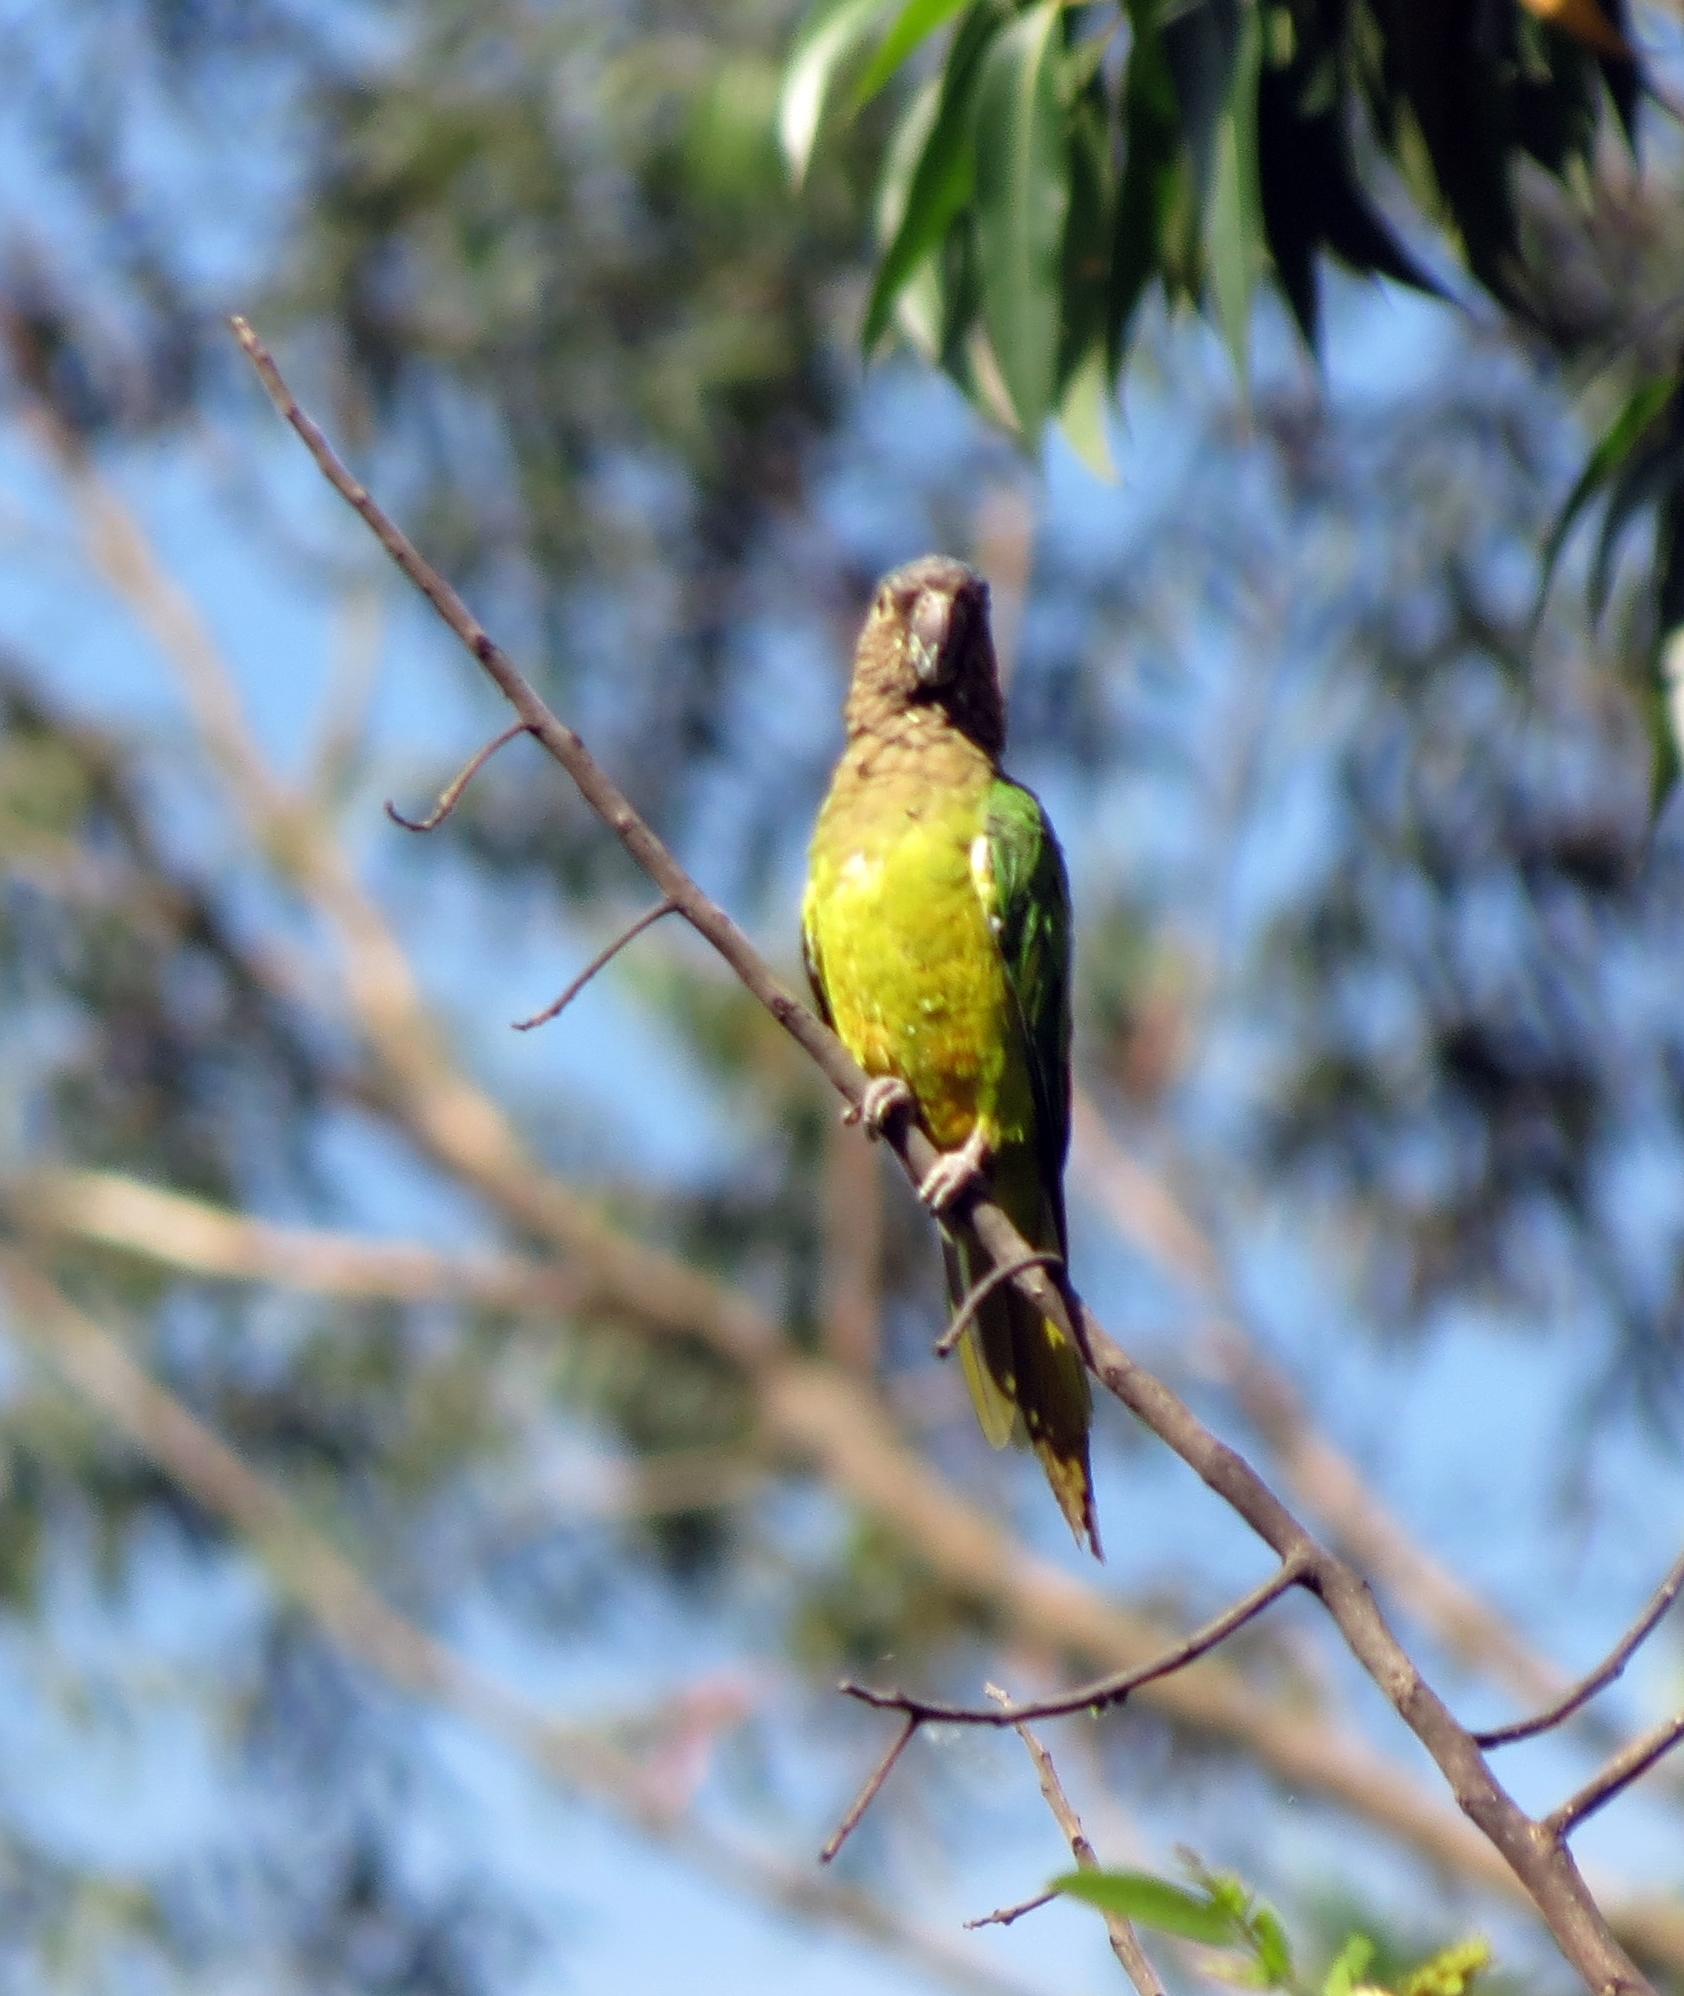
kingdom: Animalia
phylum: Chordata
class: Aves
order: Psittaciformes
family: Psittacidae
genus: Aratinga
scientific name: Aratinga pertinax
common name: Brown-throated parakeet
